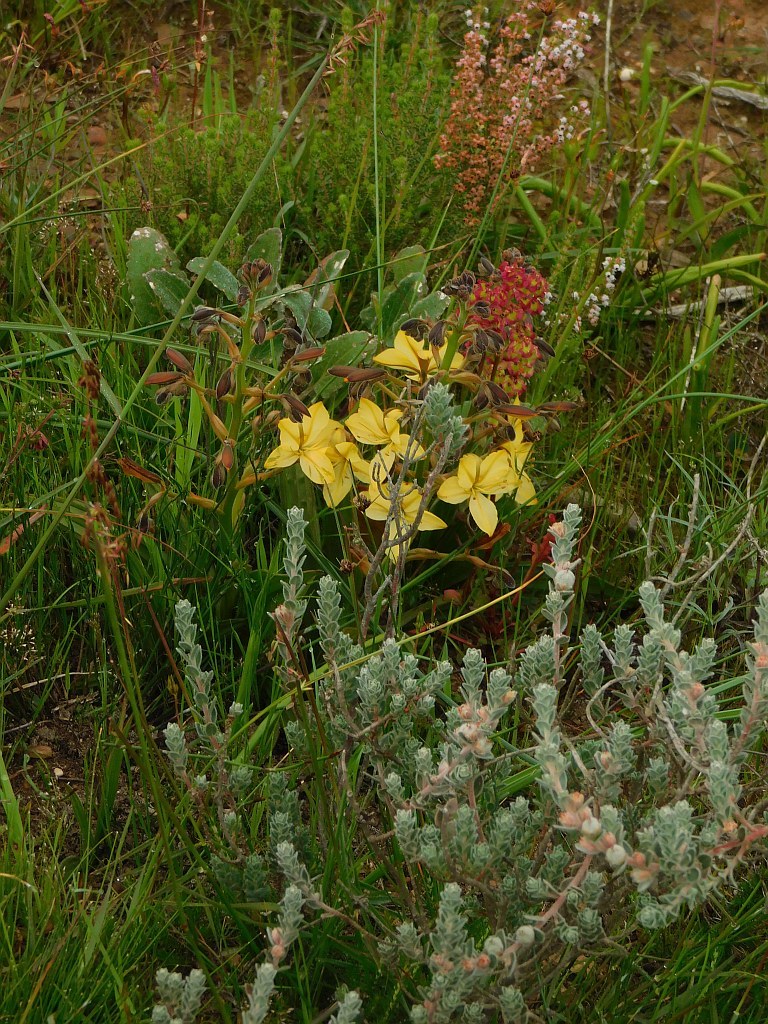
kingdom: Plantae
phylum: Tracheophyta
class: Liliopsida
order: Commelinales
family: Haemodoraceae
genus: Wachendorfia
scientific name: Wachendorfia paniculata
